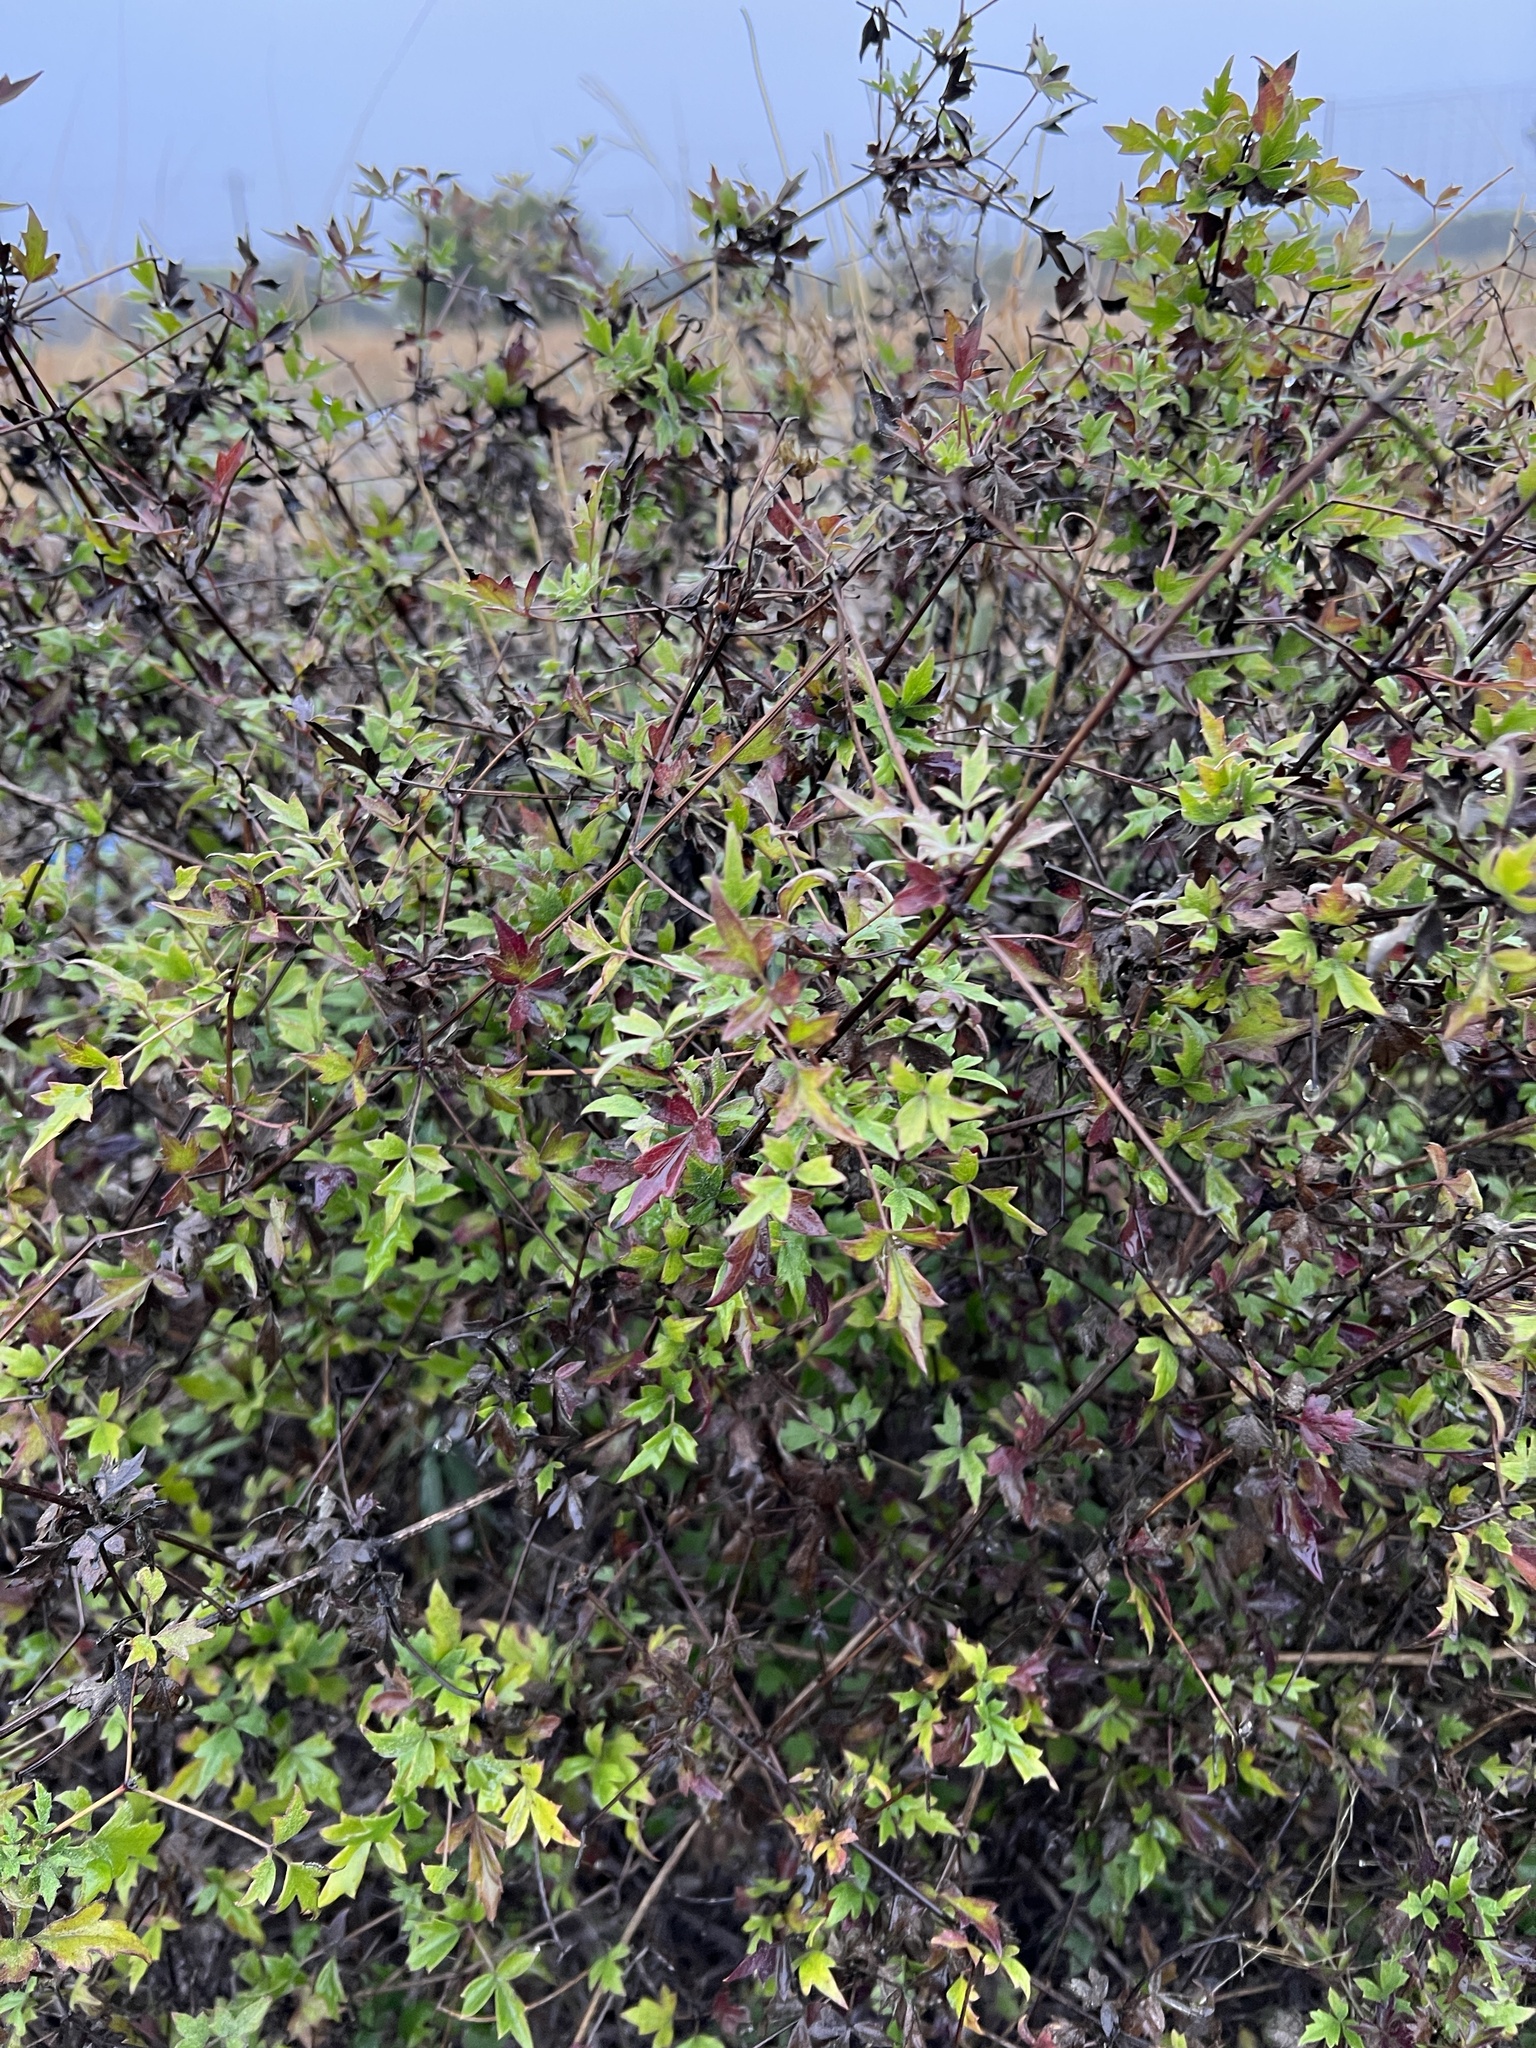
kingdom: Plantae
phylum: Tracheophyta
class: Magnoliopsida
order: Ranunculales
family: Ranunculaceae
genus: Clematis
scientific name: Clematis drummondii
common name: Texas virgin's bower
